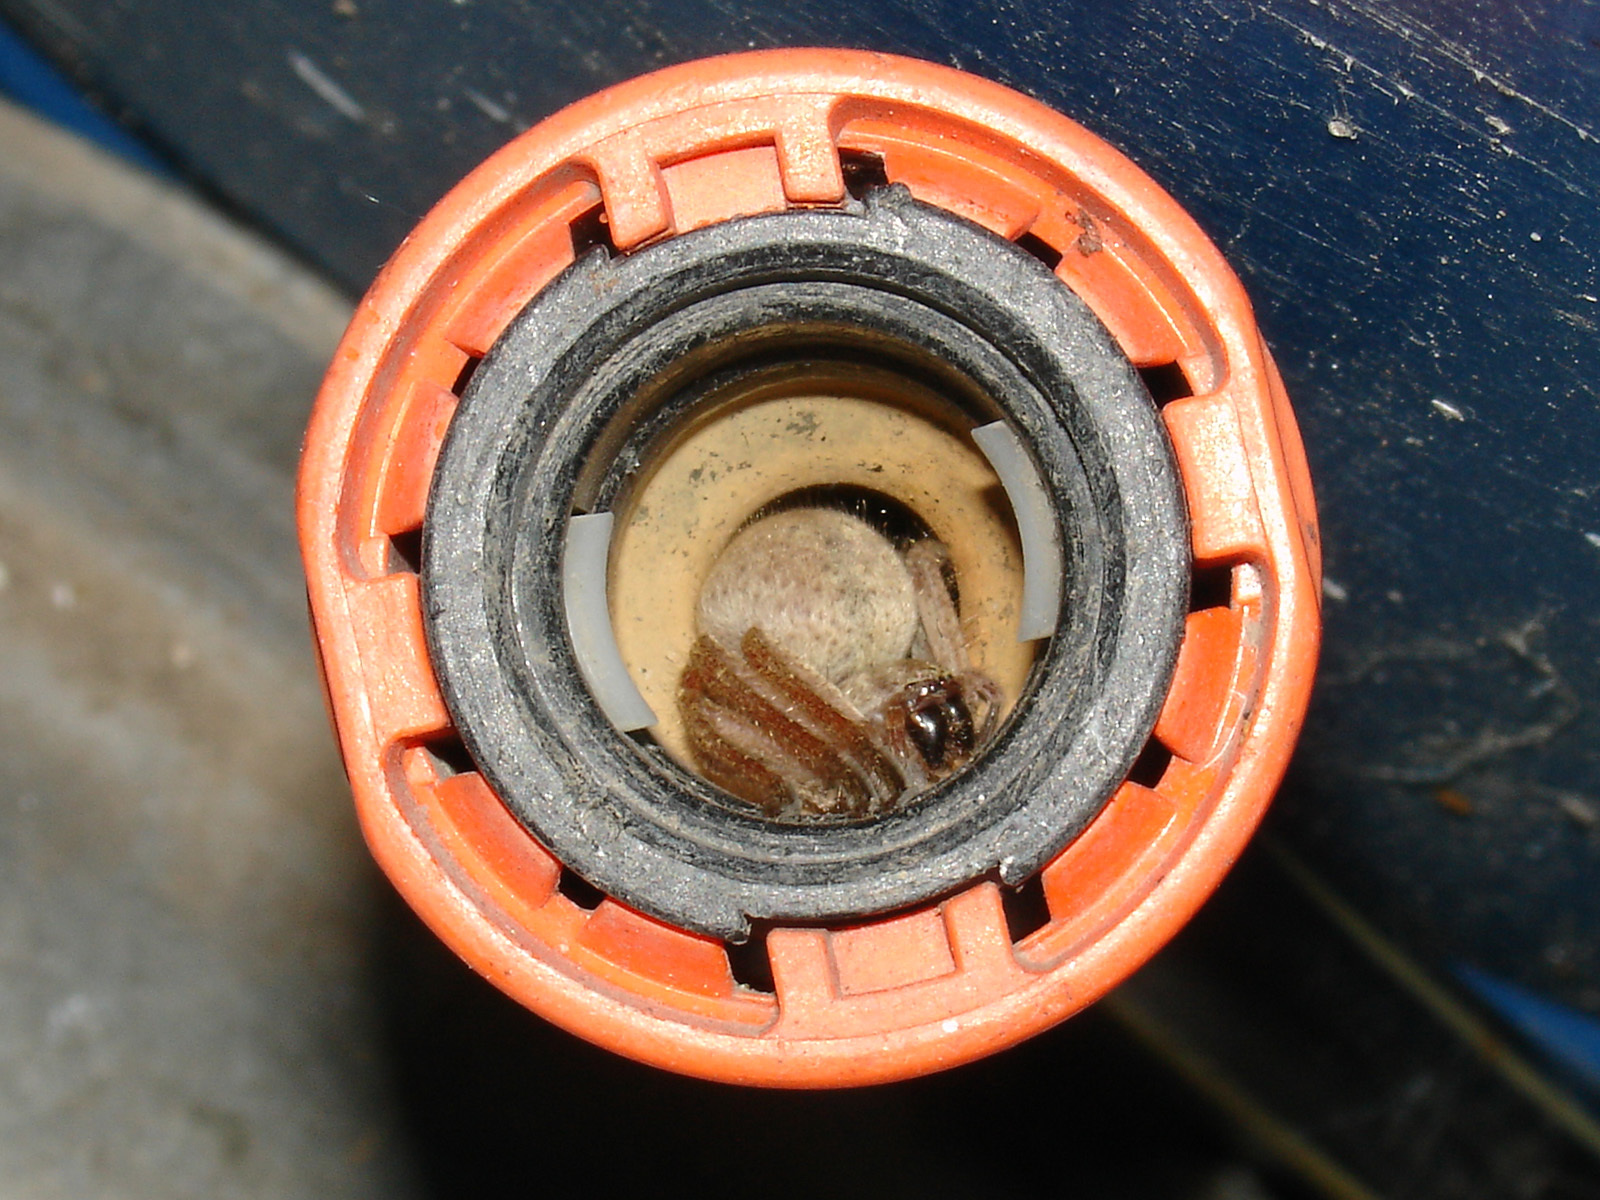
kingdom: Animalia
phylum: Arthropoda
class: Arachnida
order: Araneae
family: Sparassidae
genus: Olios
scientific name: Olios sericeus
